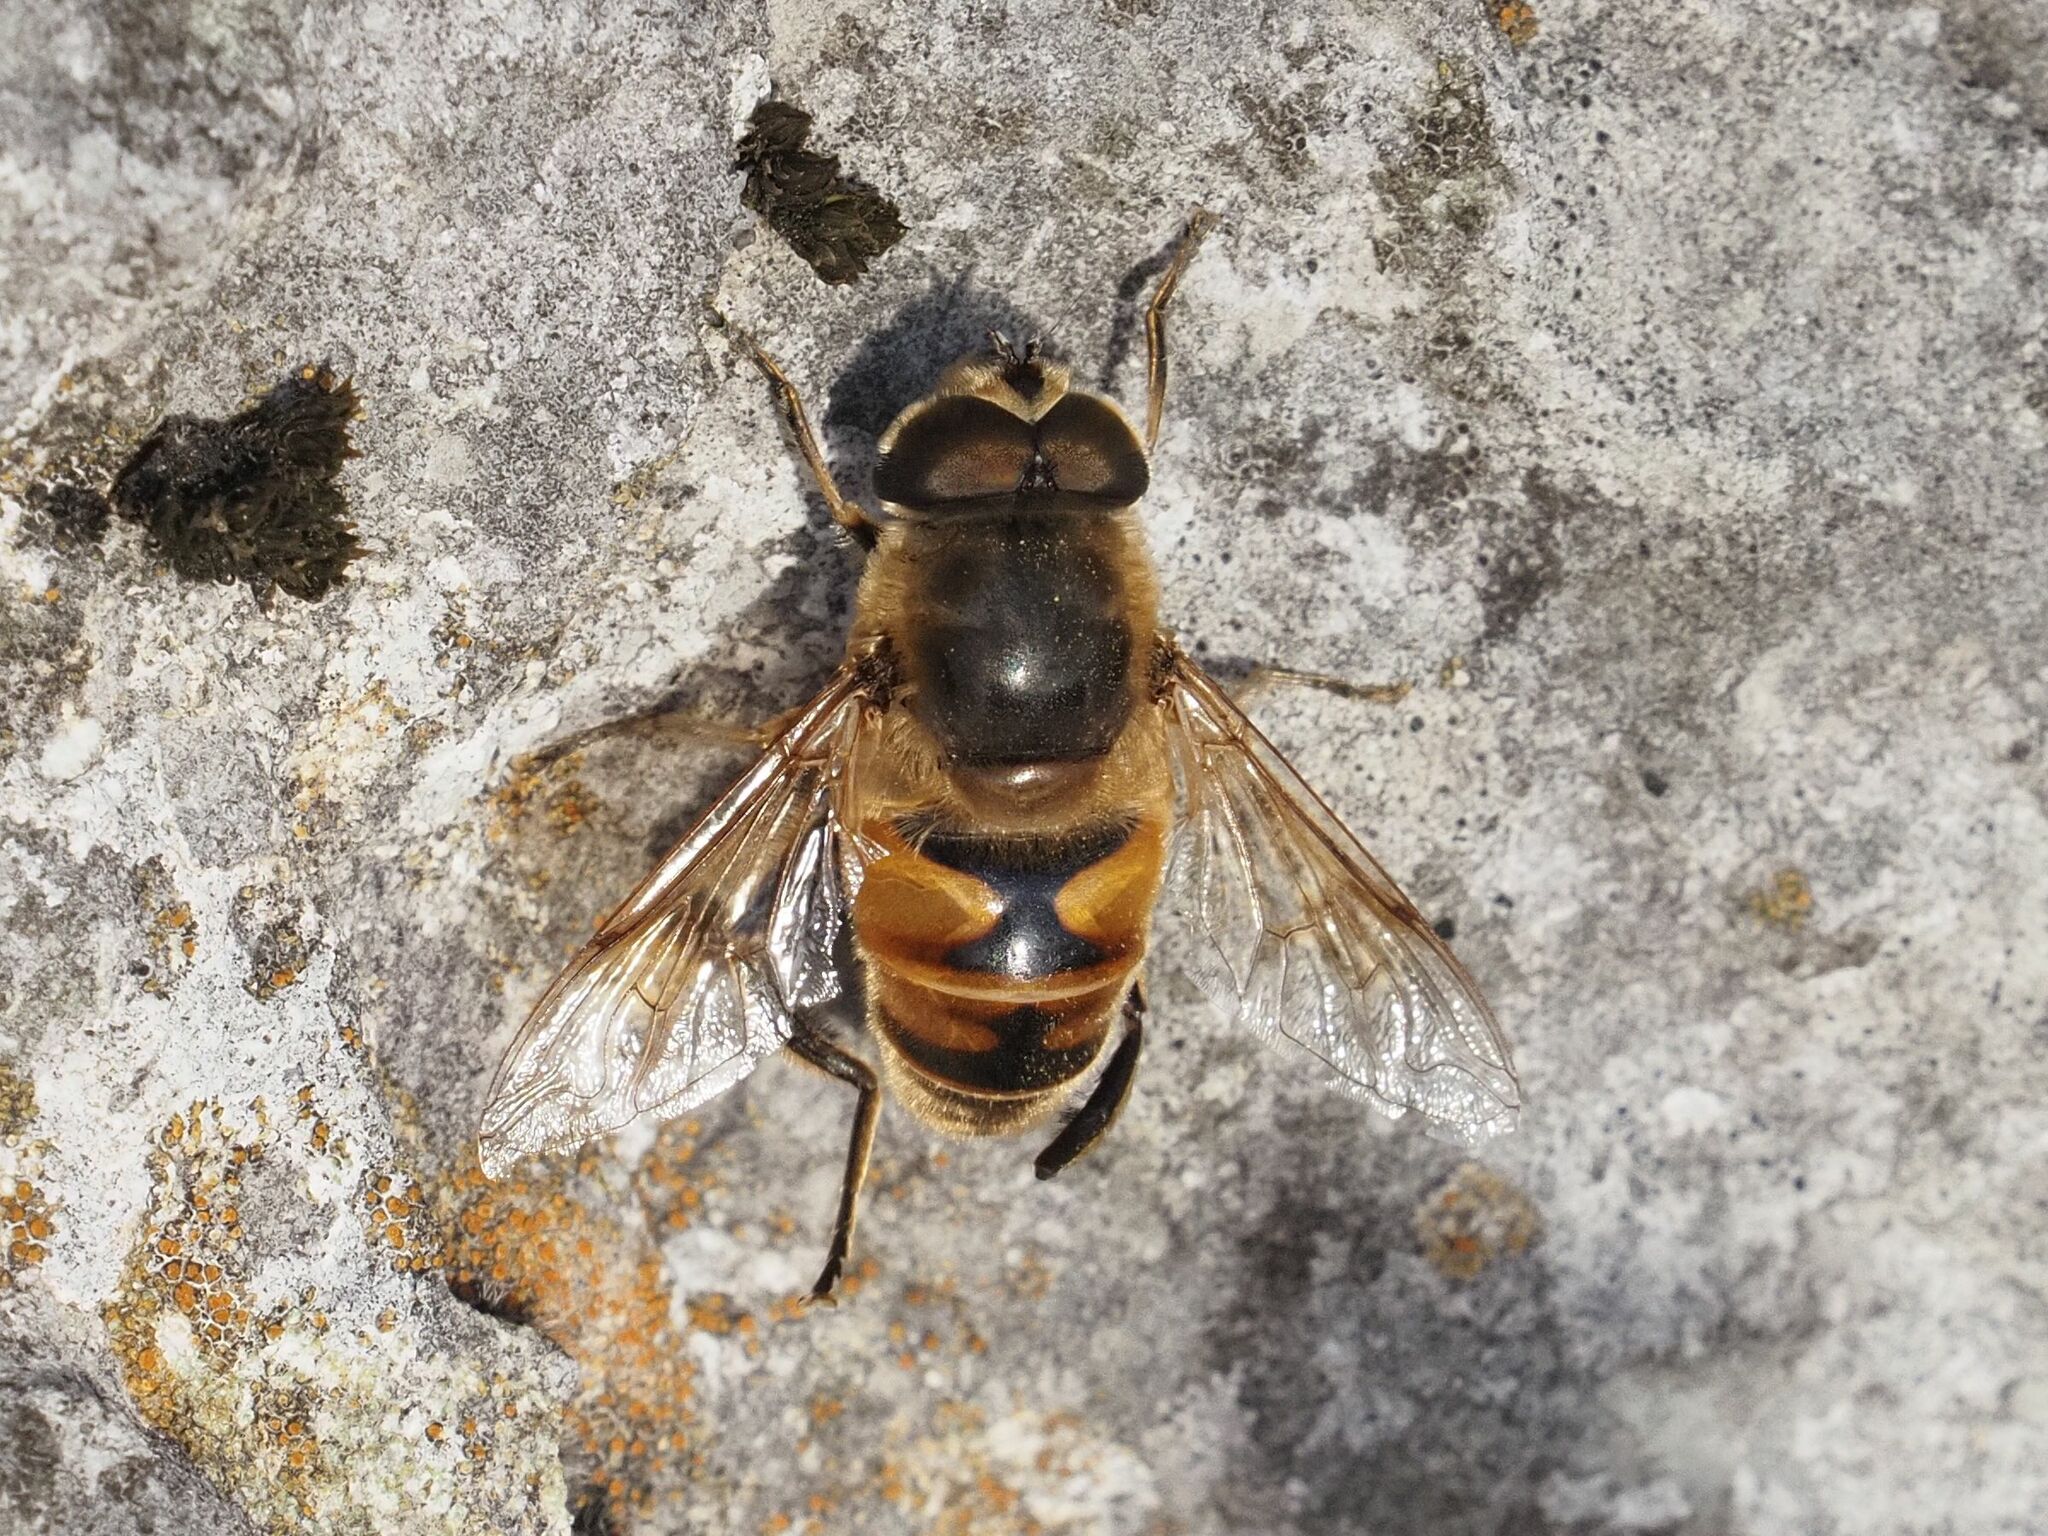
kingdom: Animalia
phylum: Arthropoda
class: Insecta
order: Diptera
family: Syrphidae
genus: Eristalis
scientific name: Eristalis tenax
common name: Drone fly
